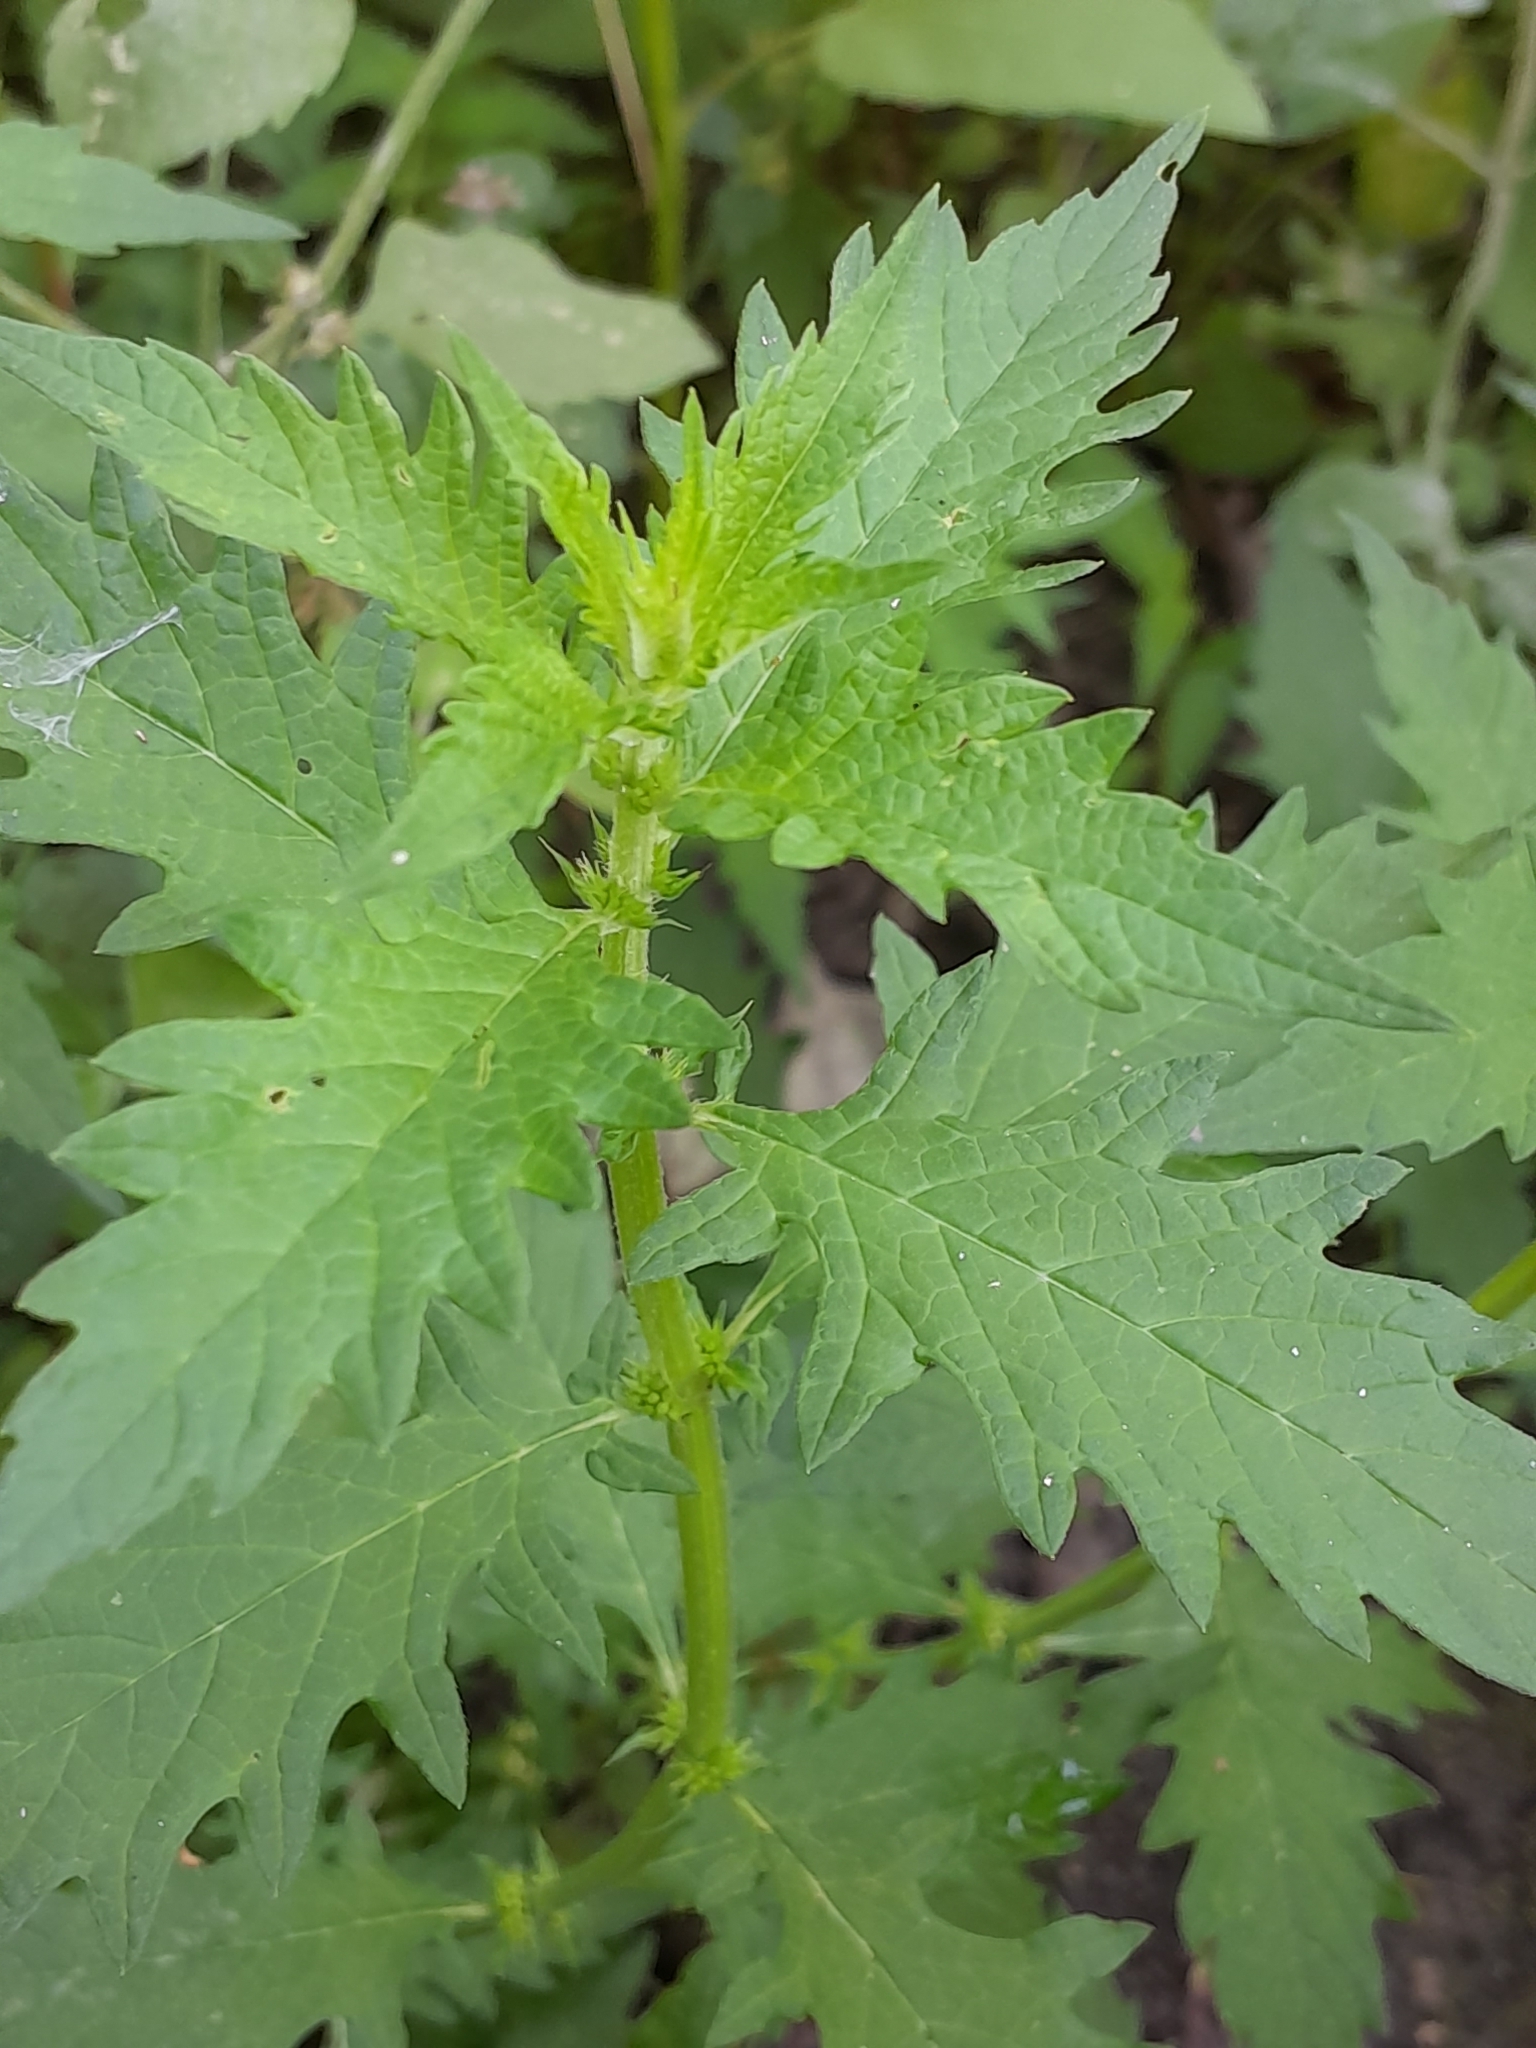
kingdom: Plantae
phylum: Tracheophyta
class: Magnoliopsida
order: Lamiales
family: Lamiaceae
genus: Lycopus
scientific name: Lycopus europaeus
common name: European bugleweed
